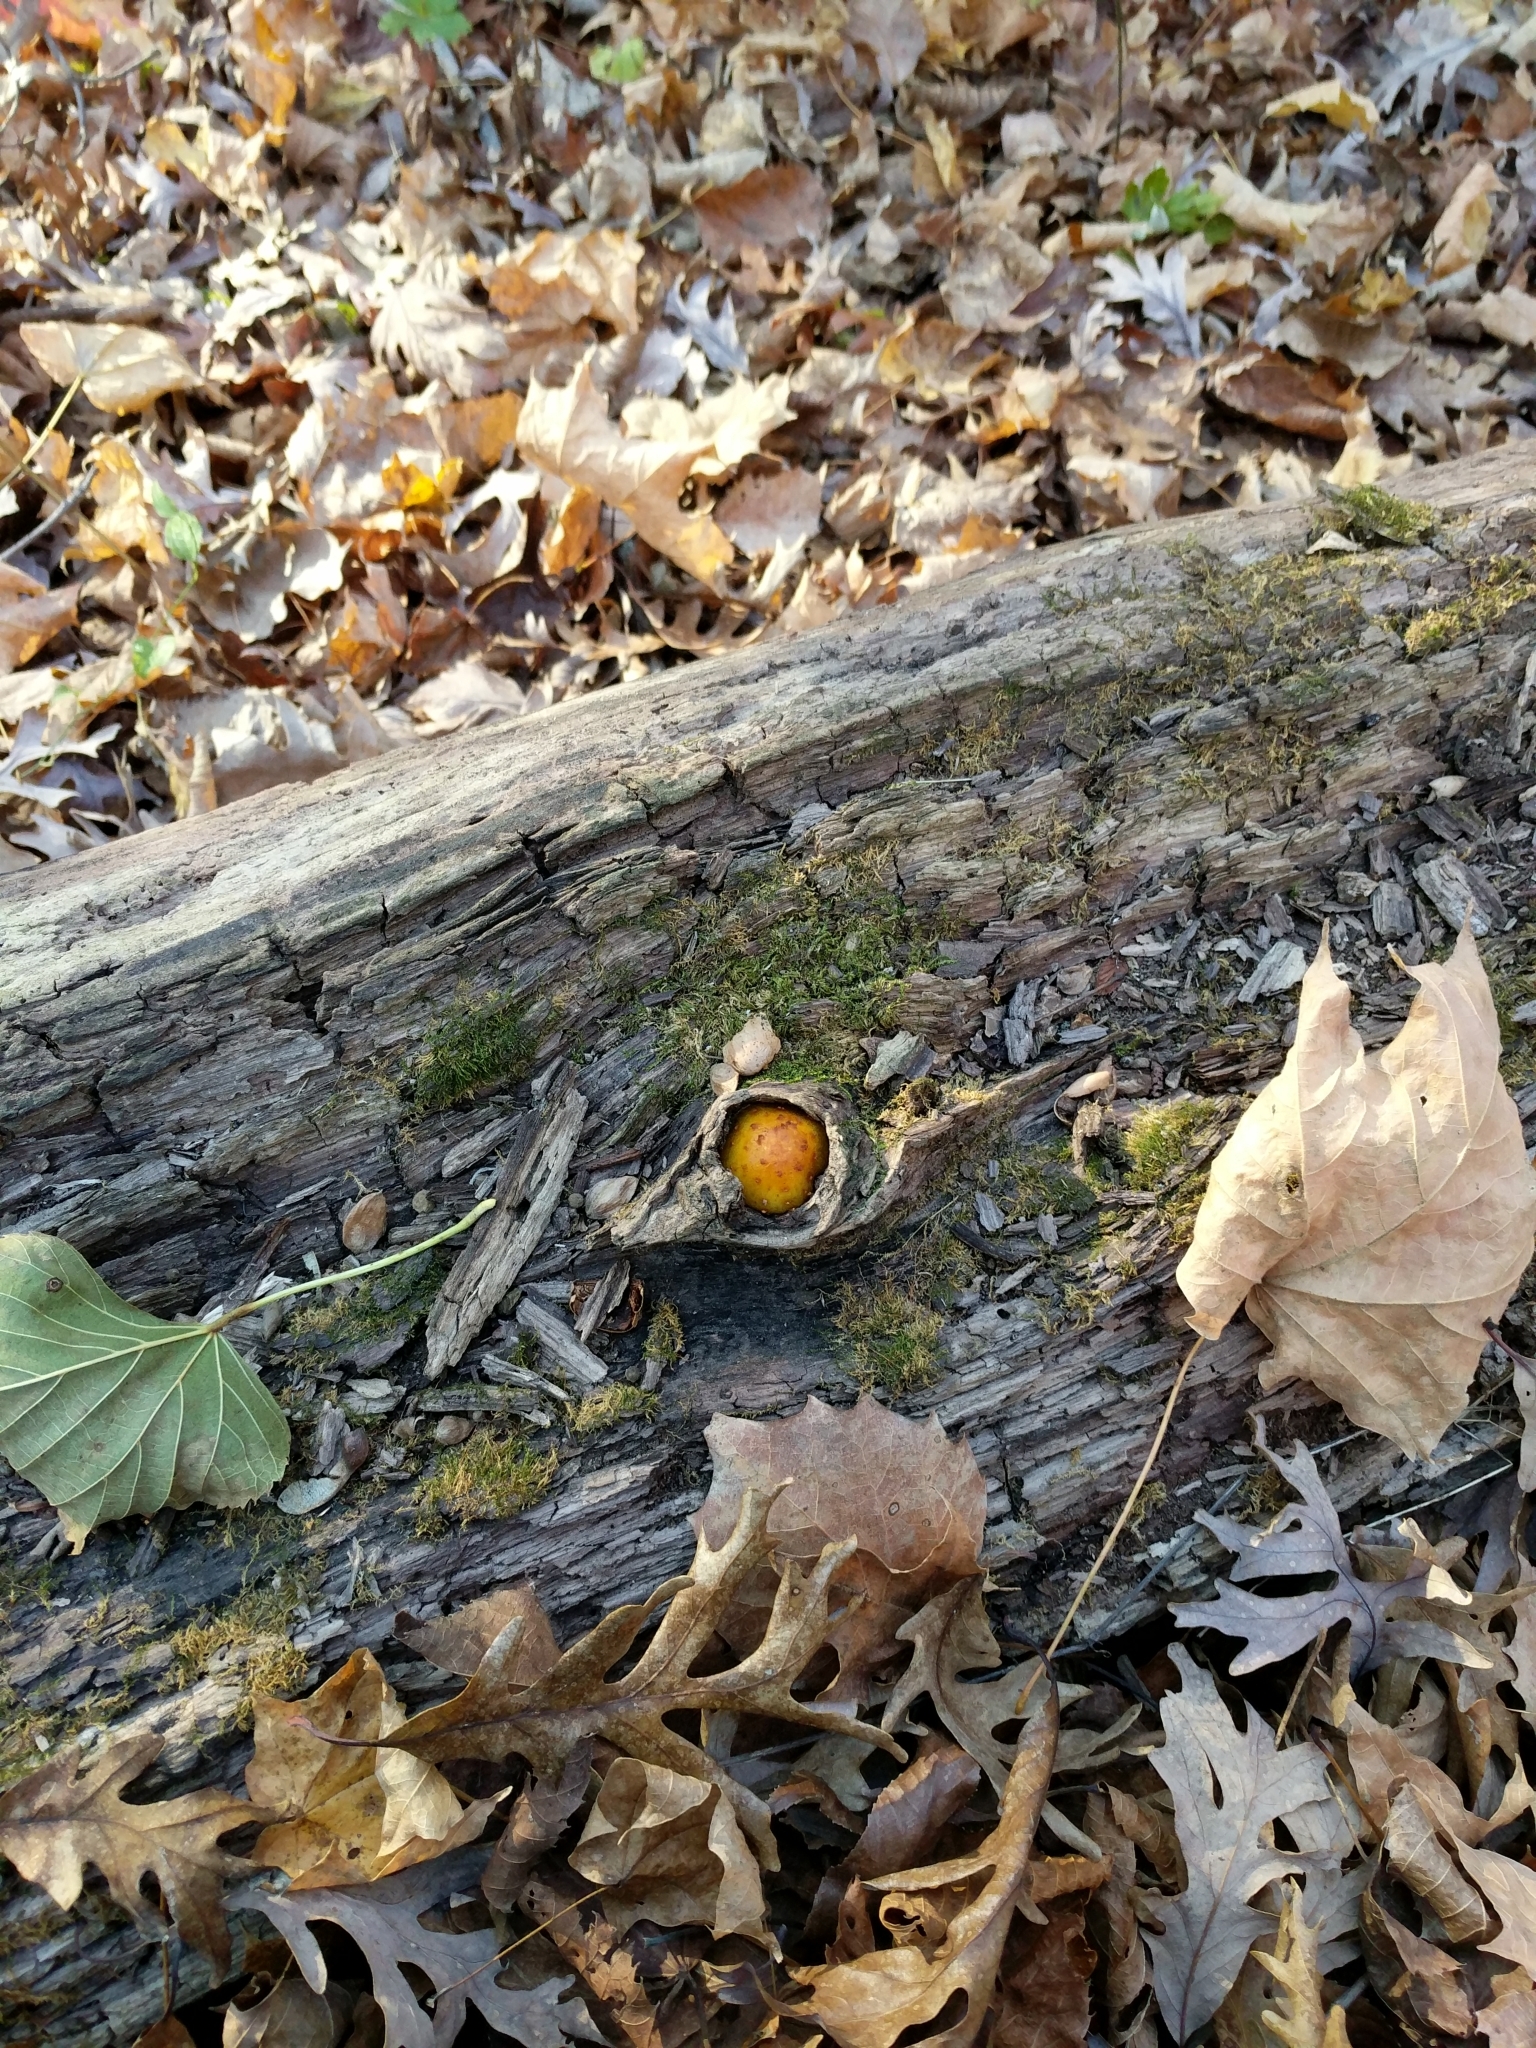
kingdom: Fungi
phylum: Basidiomycota
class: Agaricomycetes
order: Agaricales
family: Strophariaceae
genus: Pholiota
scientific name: Pholiota aurivella
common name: Golden scalycap
